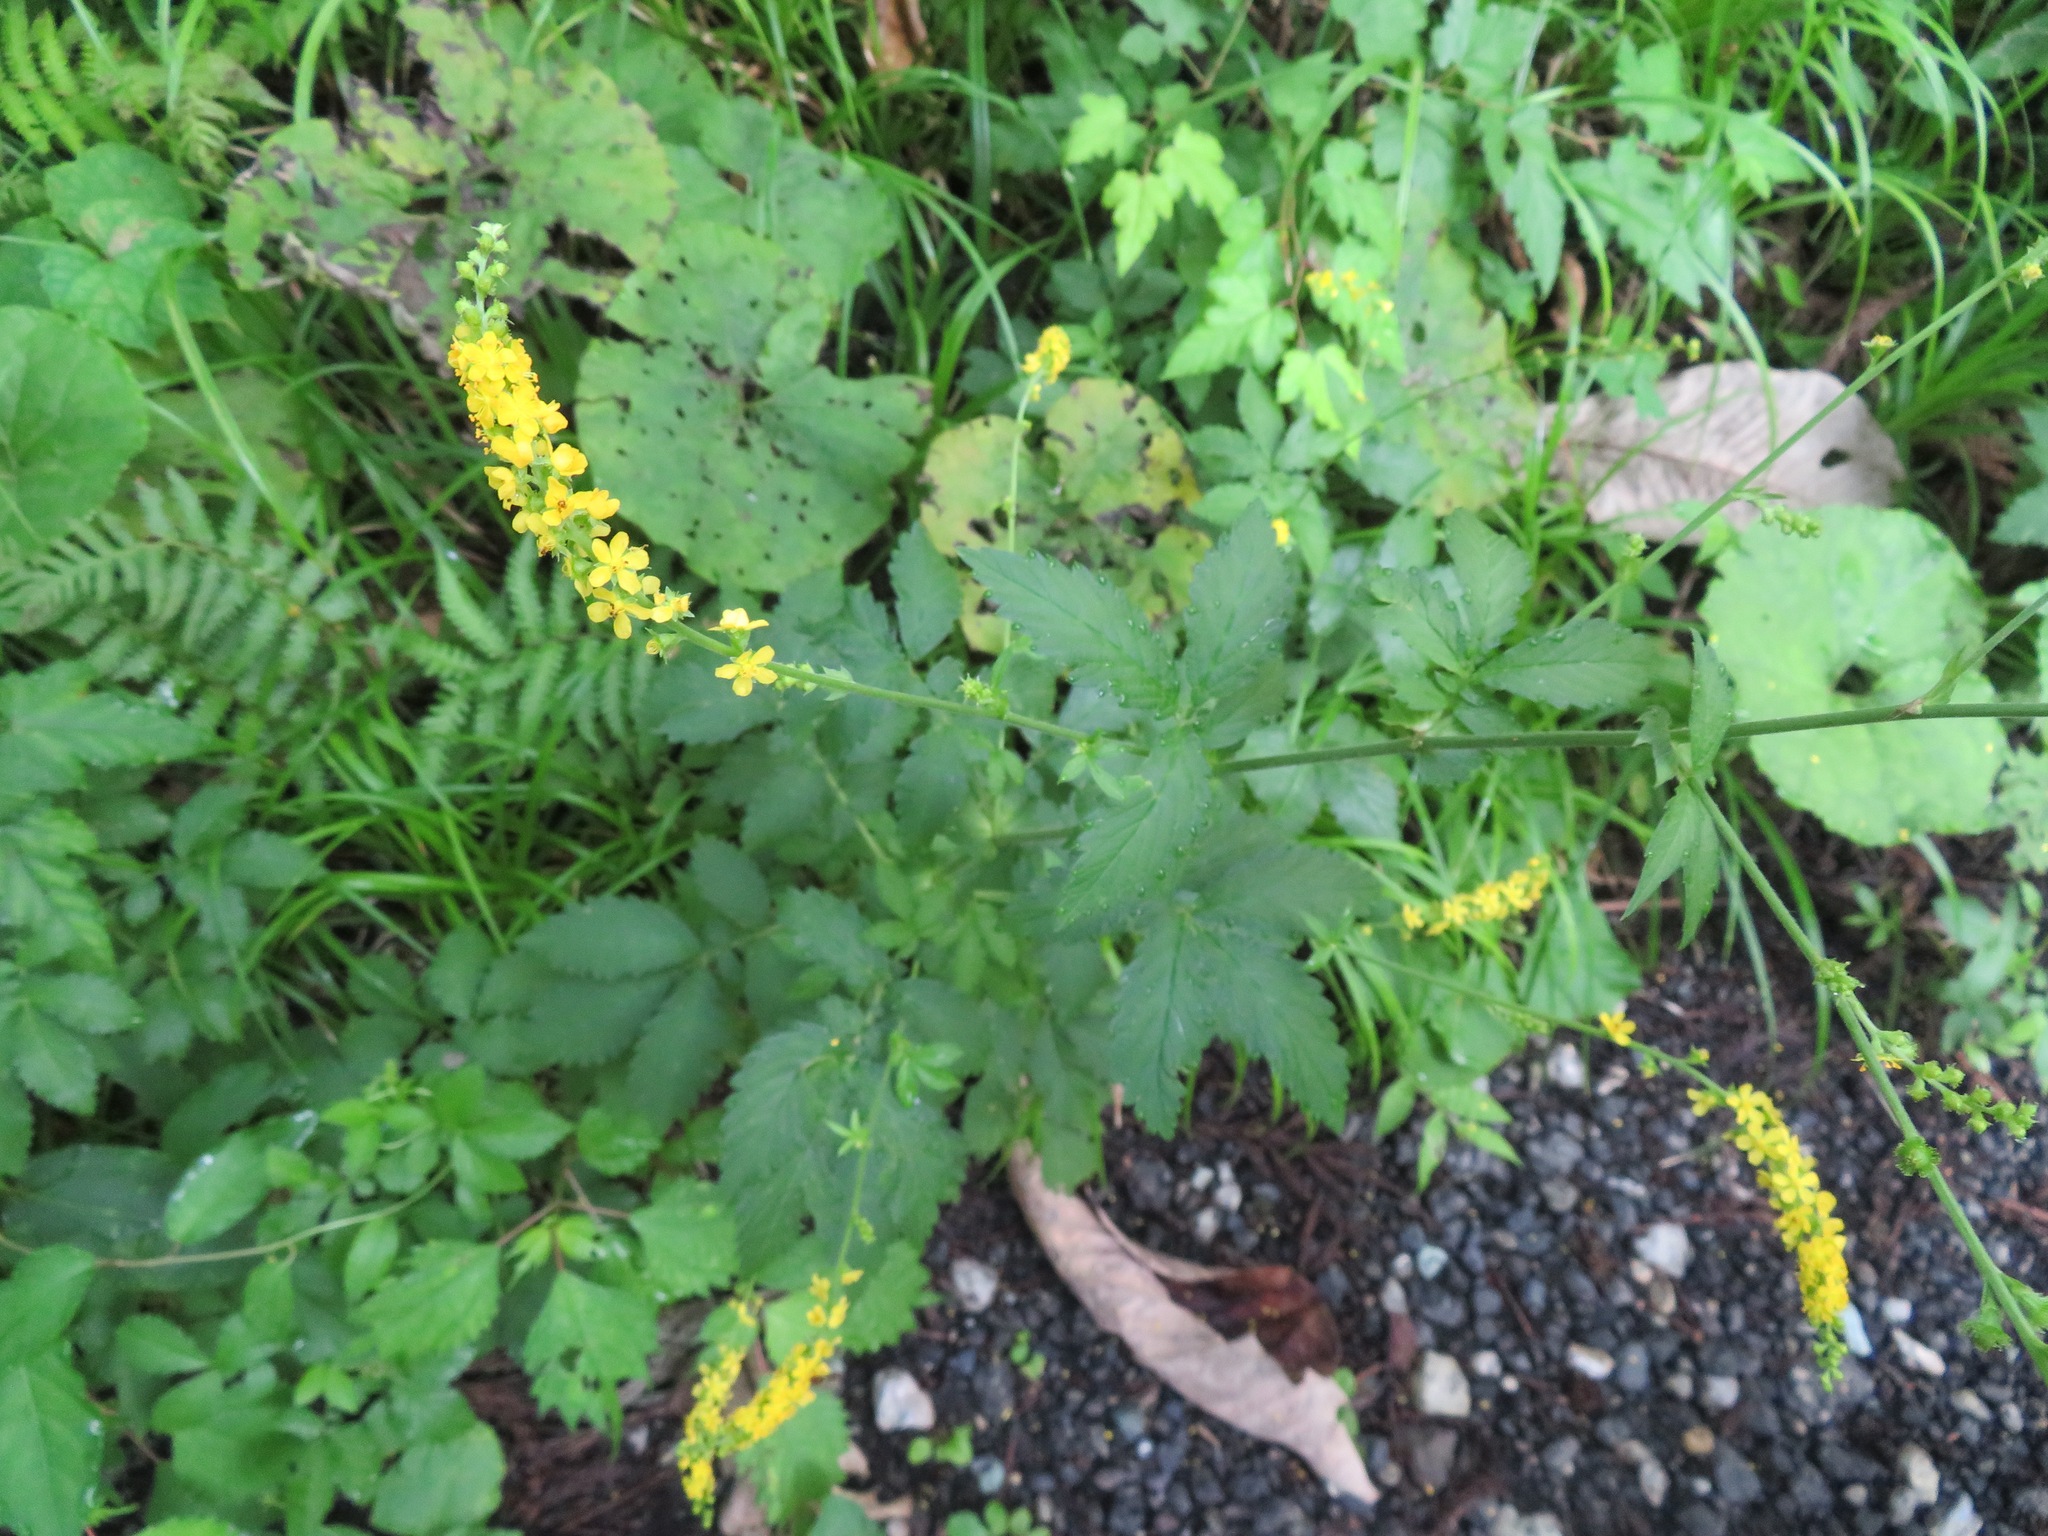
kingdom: Plantae
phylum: Tracheophyta
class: Magnoliopsida
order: Rosales
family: Rosaceae
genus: Agrimonia
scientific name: Agrimonia pilosa
